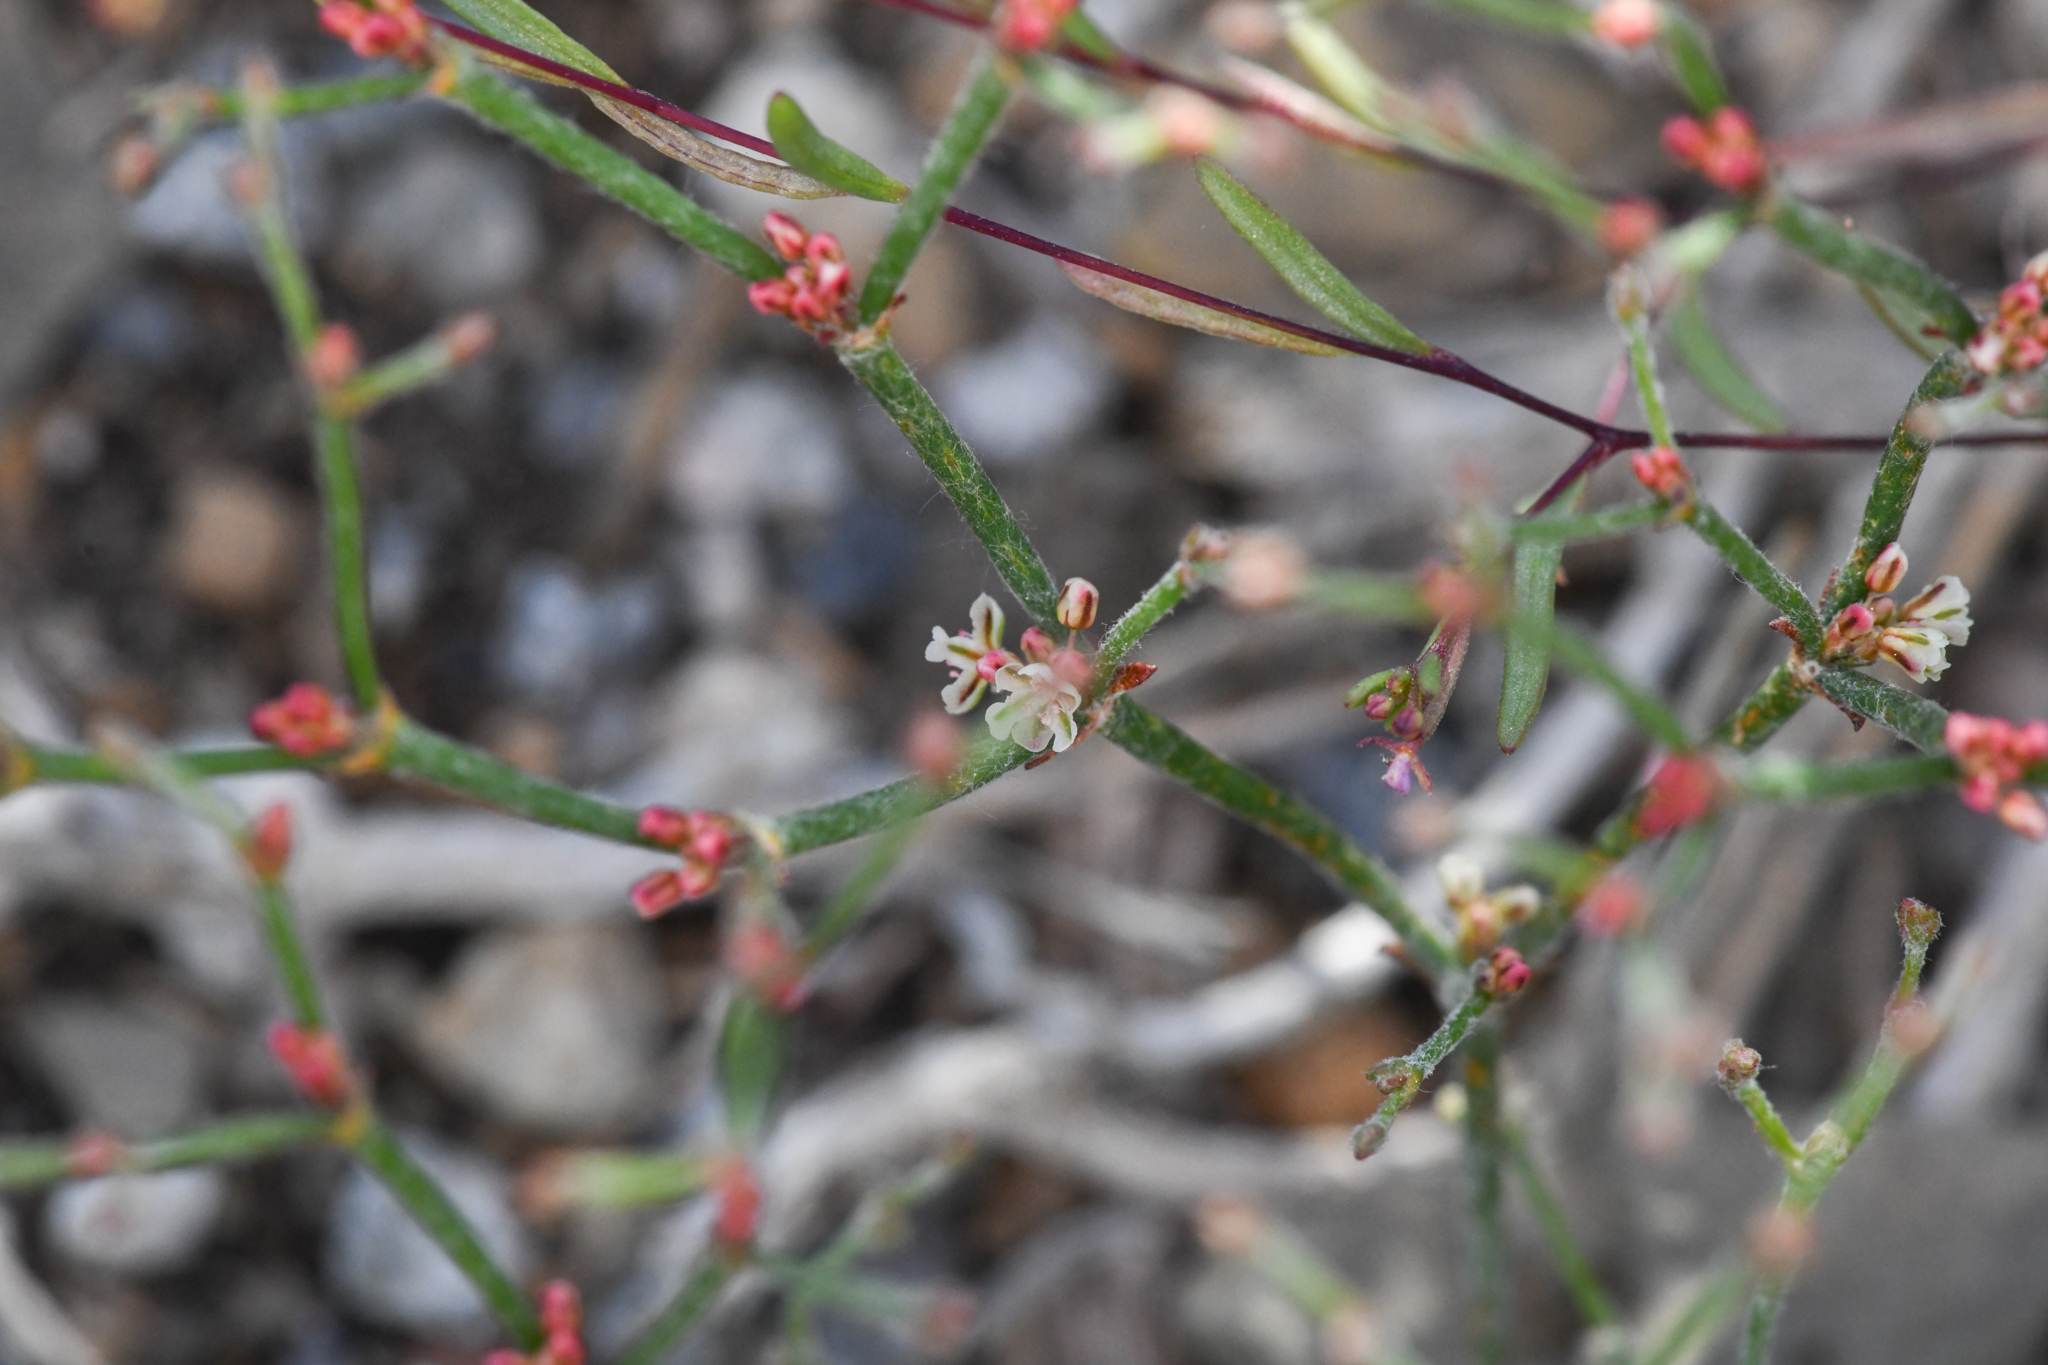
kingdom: Plantae
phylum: Tracheophyta
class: Magnoliopsida
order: Caryophyllales
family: Polygonaceae
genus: Eriogonum
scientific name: Eriogonum palmerianum
